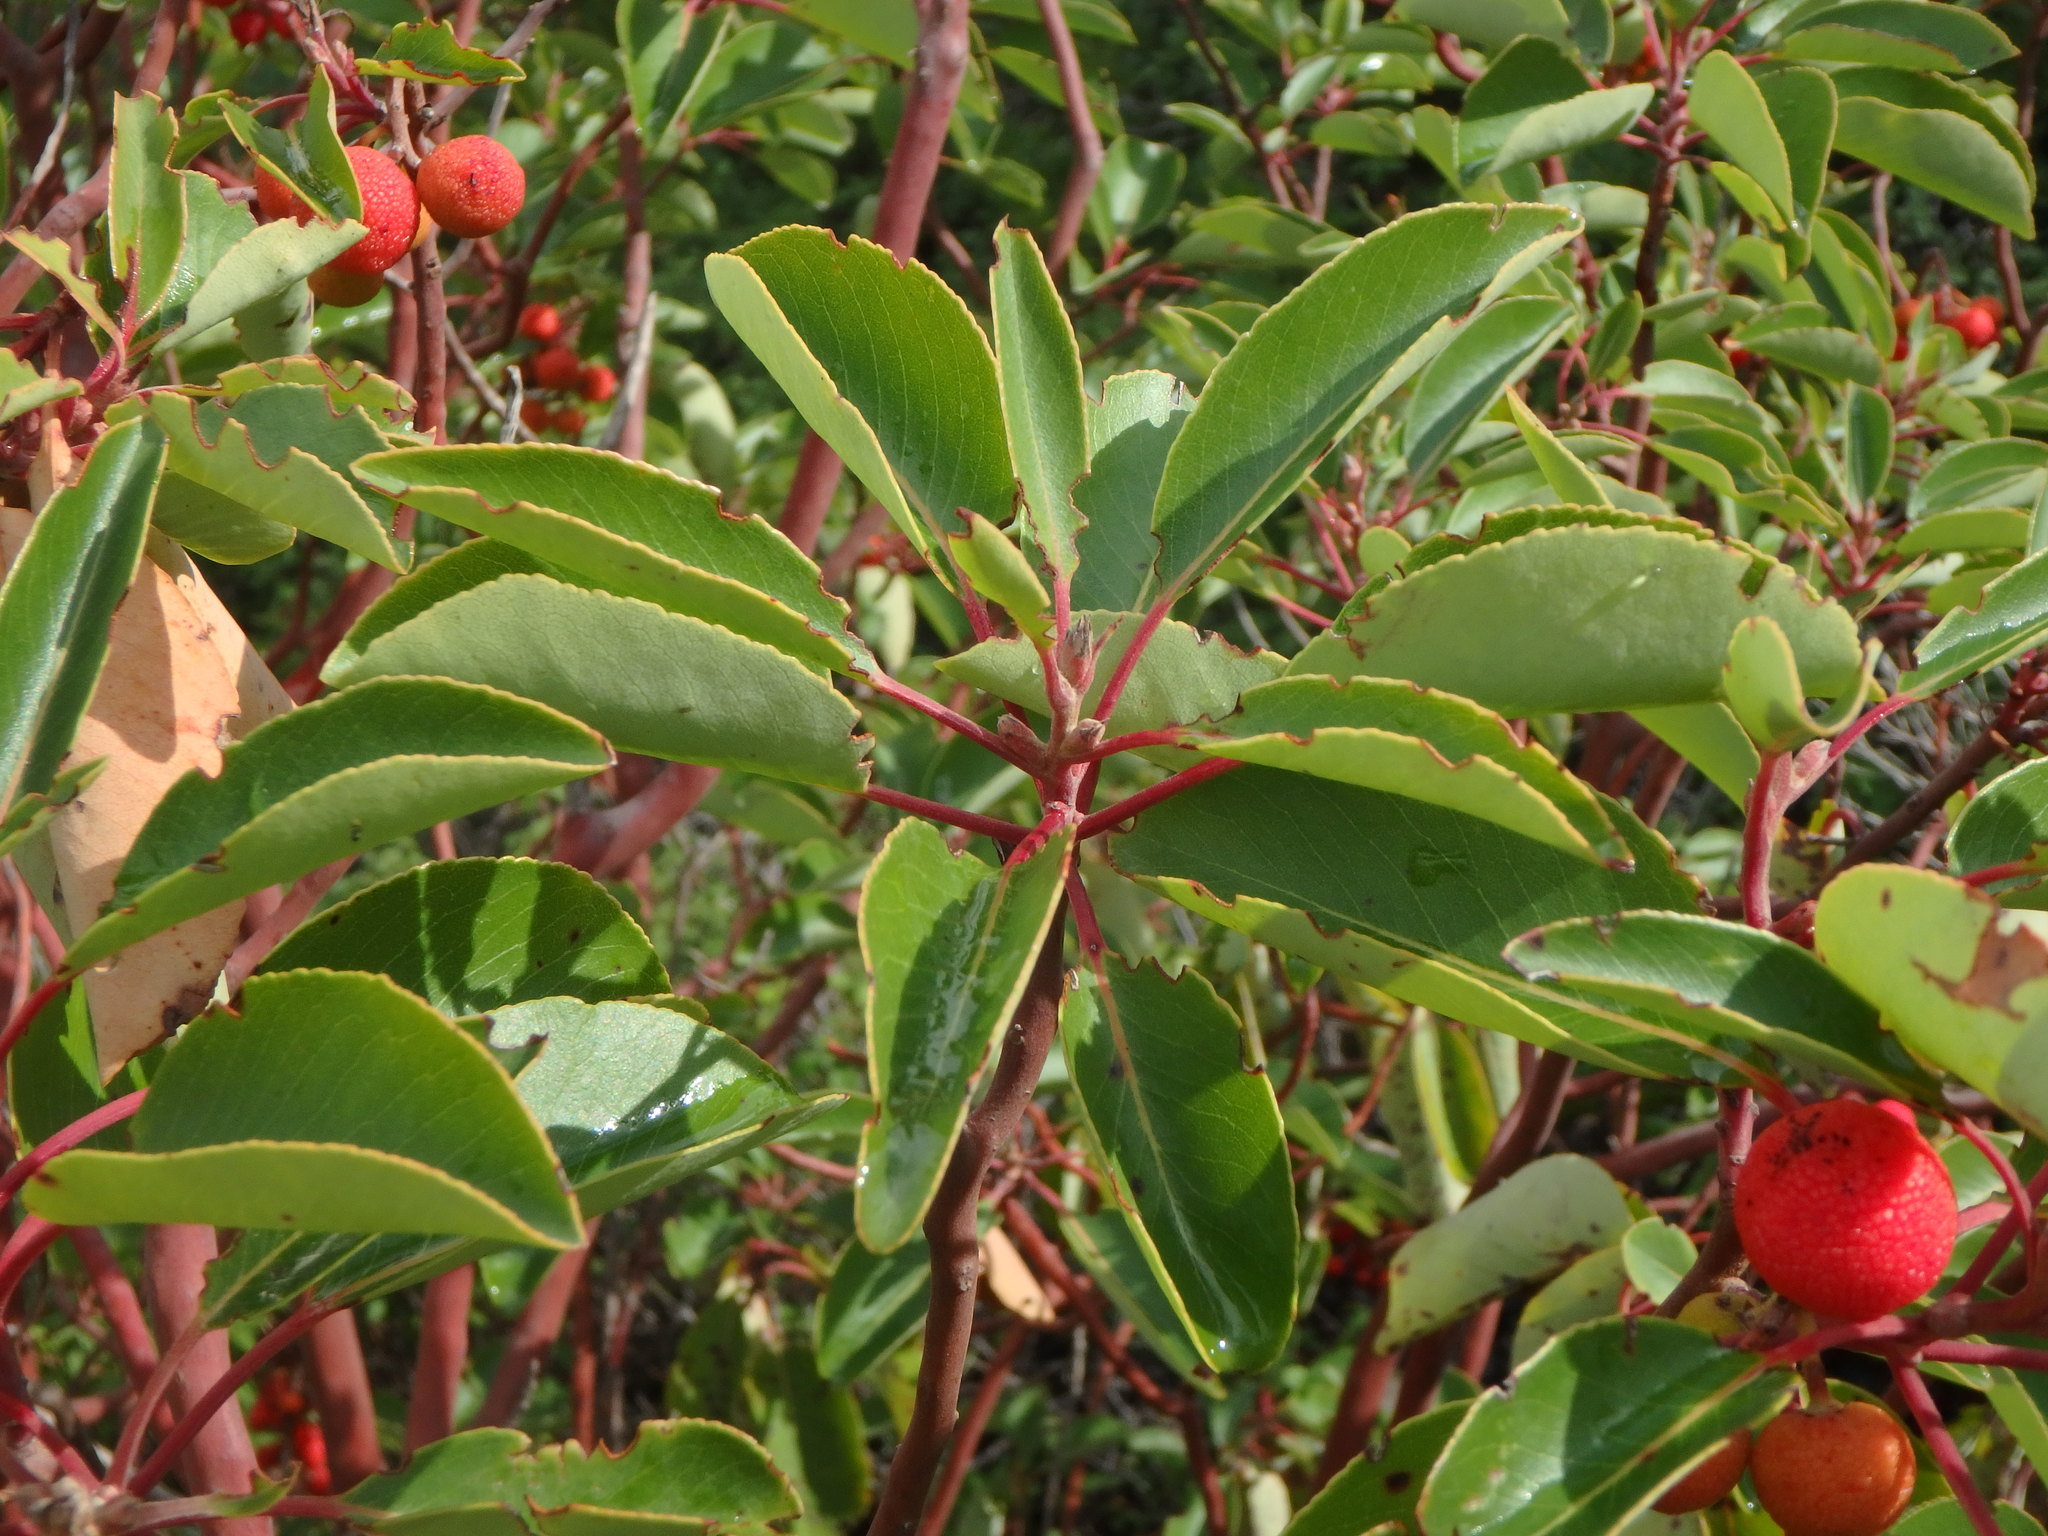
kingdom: Plantae
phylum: Tracheophyta
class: Magnoliopsida
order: Ericales
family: Ericaceae
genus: Arbutus
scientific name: Arbutus andrachne
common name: Greek strawberry tree
